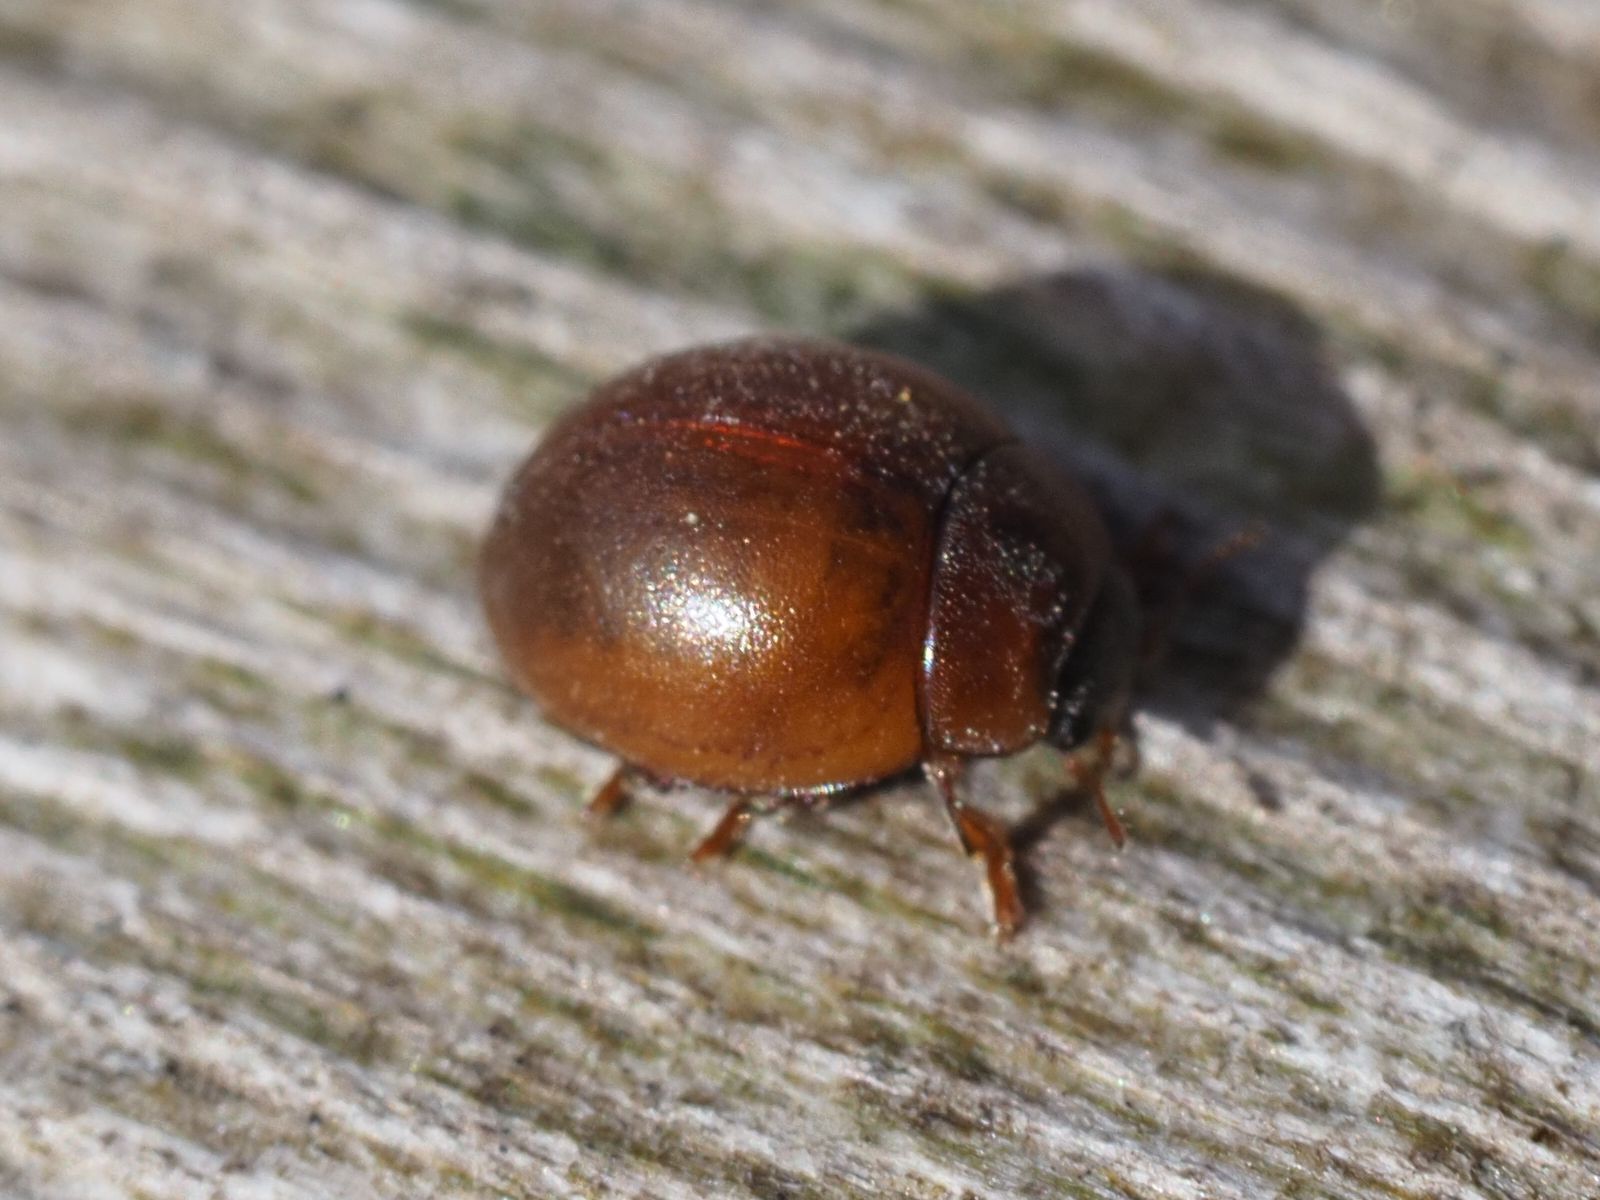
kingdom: Animalia
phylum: Arthropoda
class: Insecta
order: Coleoptera
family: Coccinellidae
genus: Cynegetis
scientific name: Cynegetis impunctata
